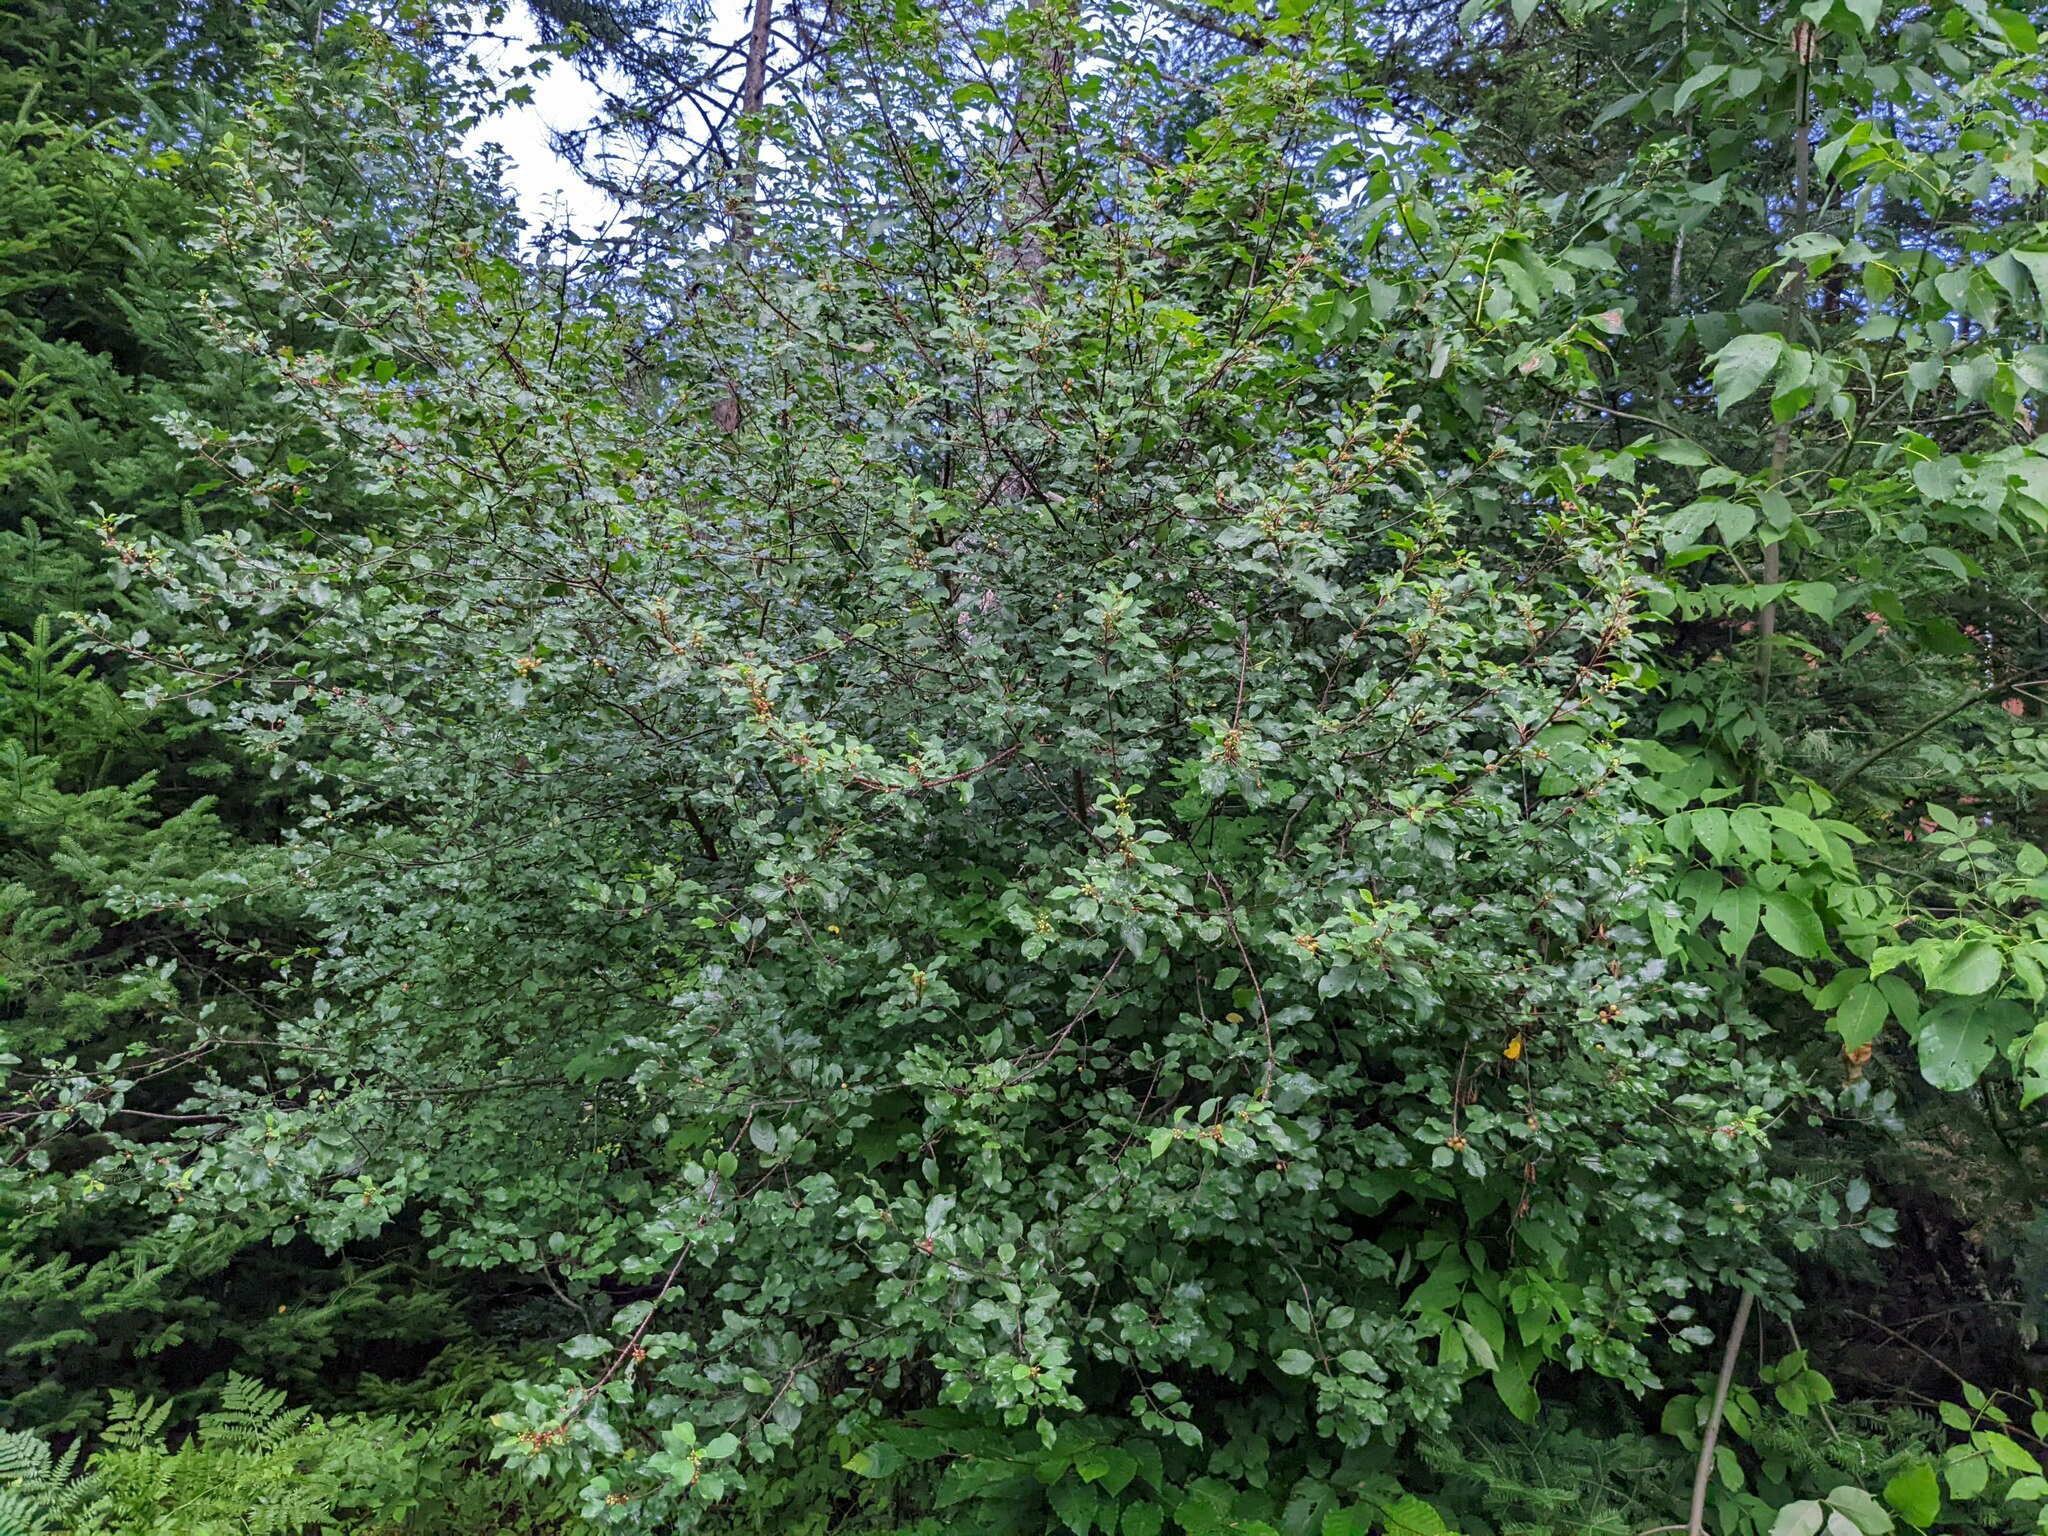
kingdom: Plantae
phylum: Tracheophyta
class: Magnoliopsida
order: Rosales
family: Rhamnaceae
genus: Frangula
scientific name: Frangula alnus
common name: Alder buckthorn
